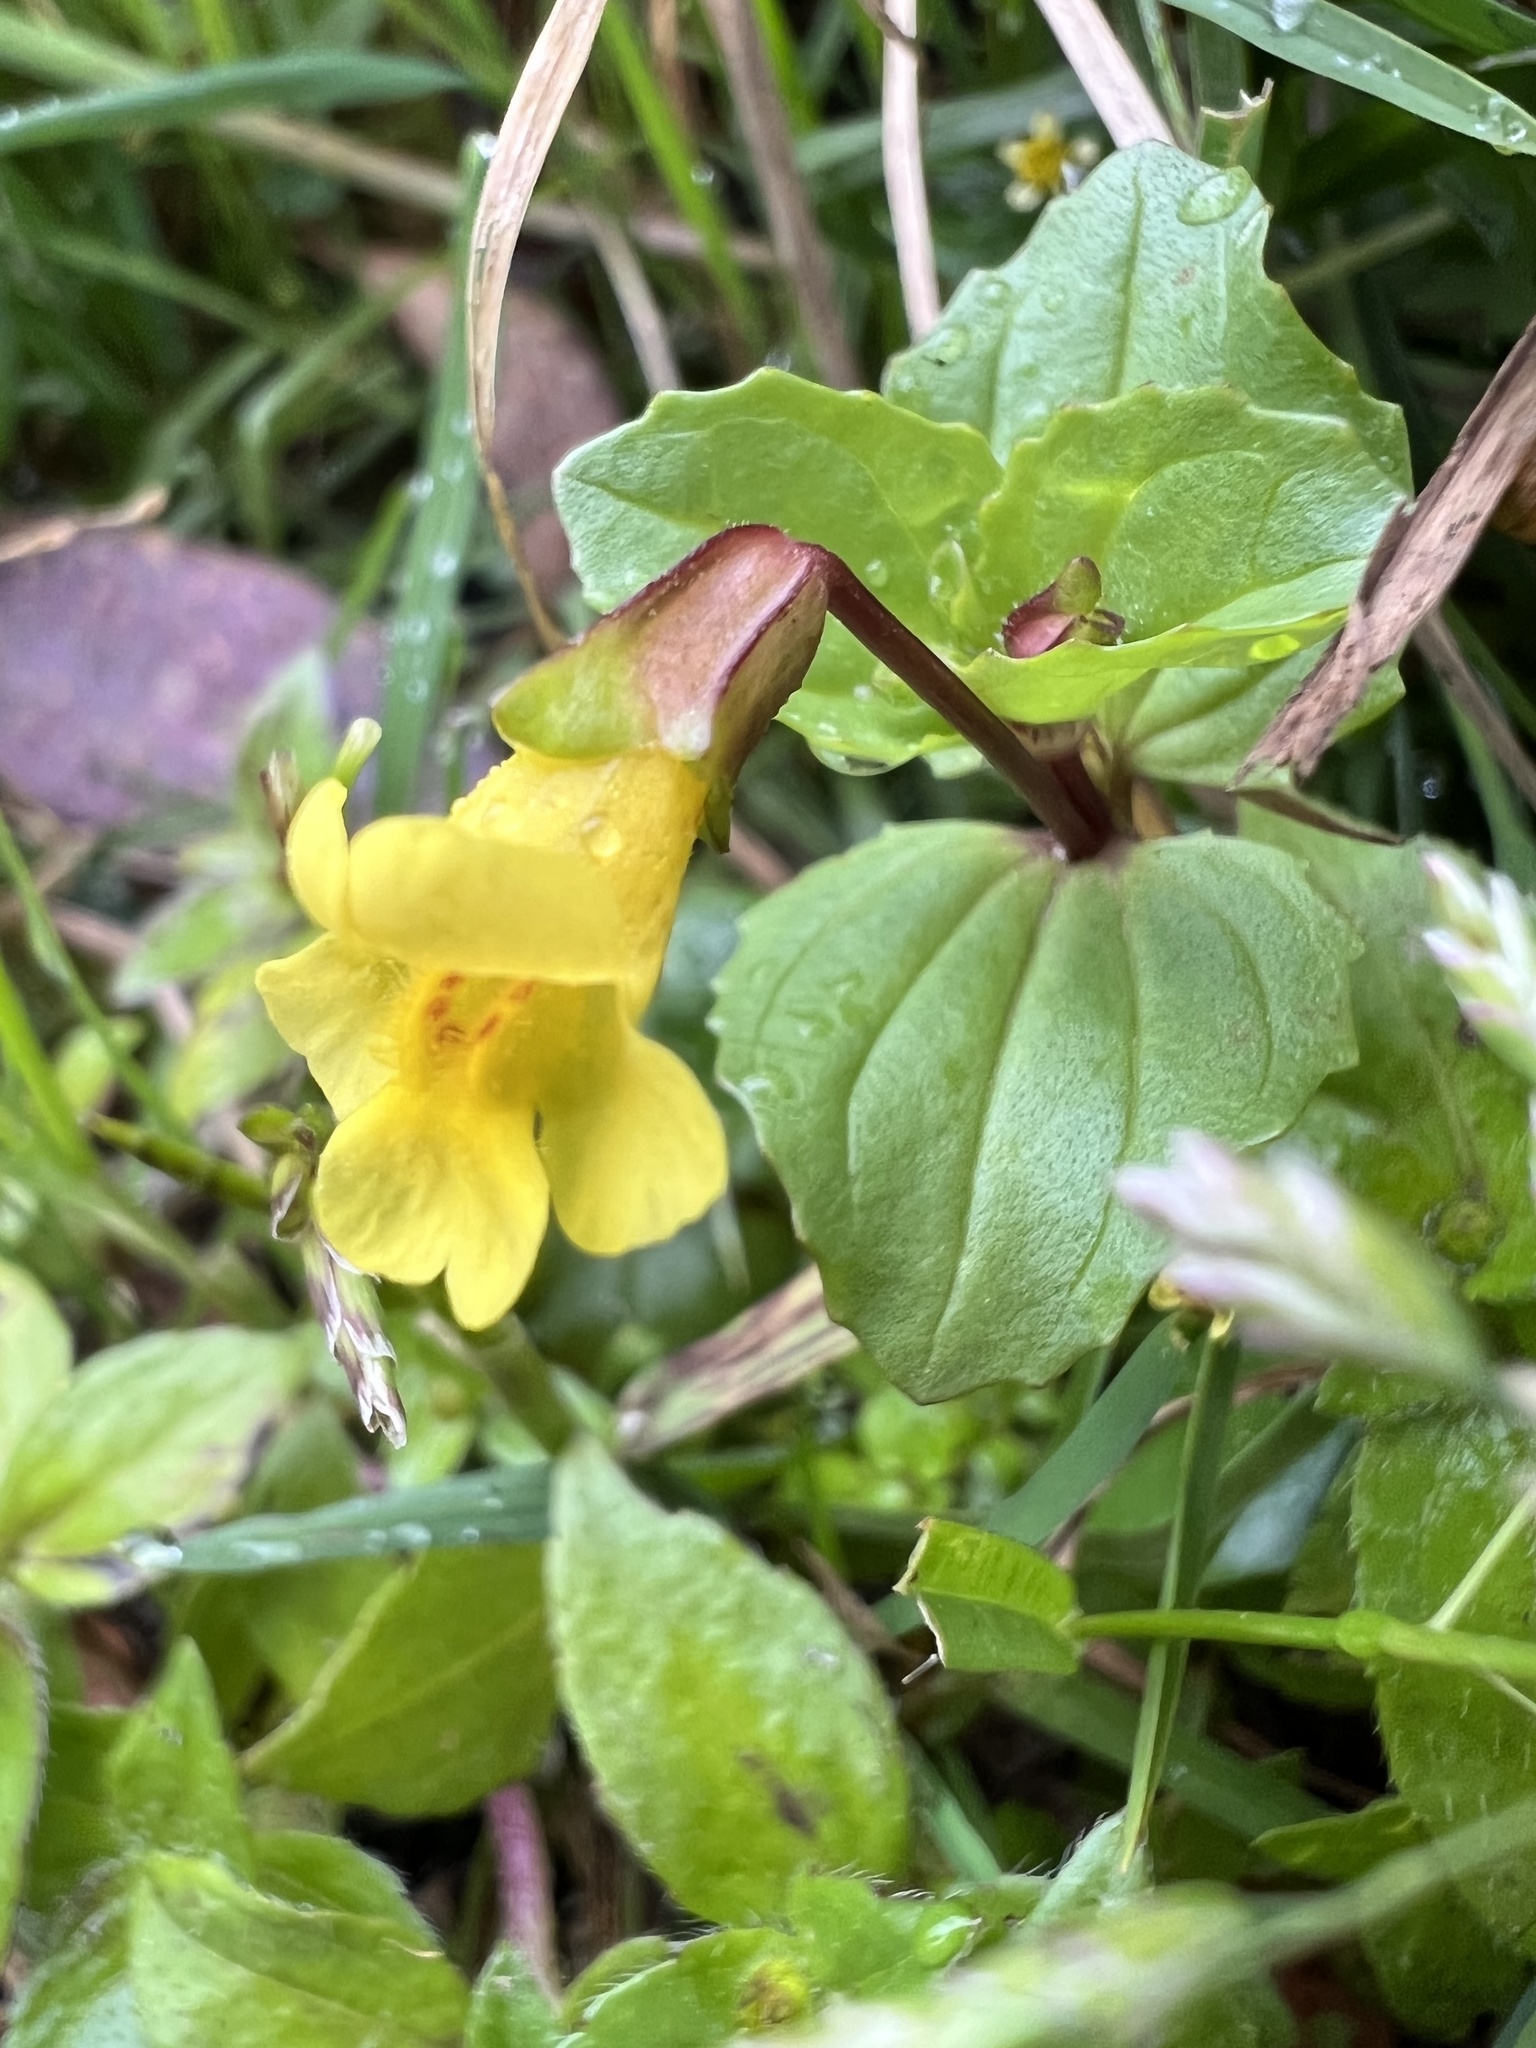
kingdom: Plantae
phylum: Tracheophyta
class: Magnoliopsida
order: Lamiales
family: Phrymaceae
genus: Erythranthe
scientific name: Erythranthe glabrata
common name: Round-leaved monkeyflower
